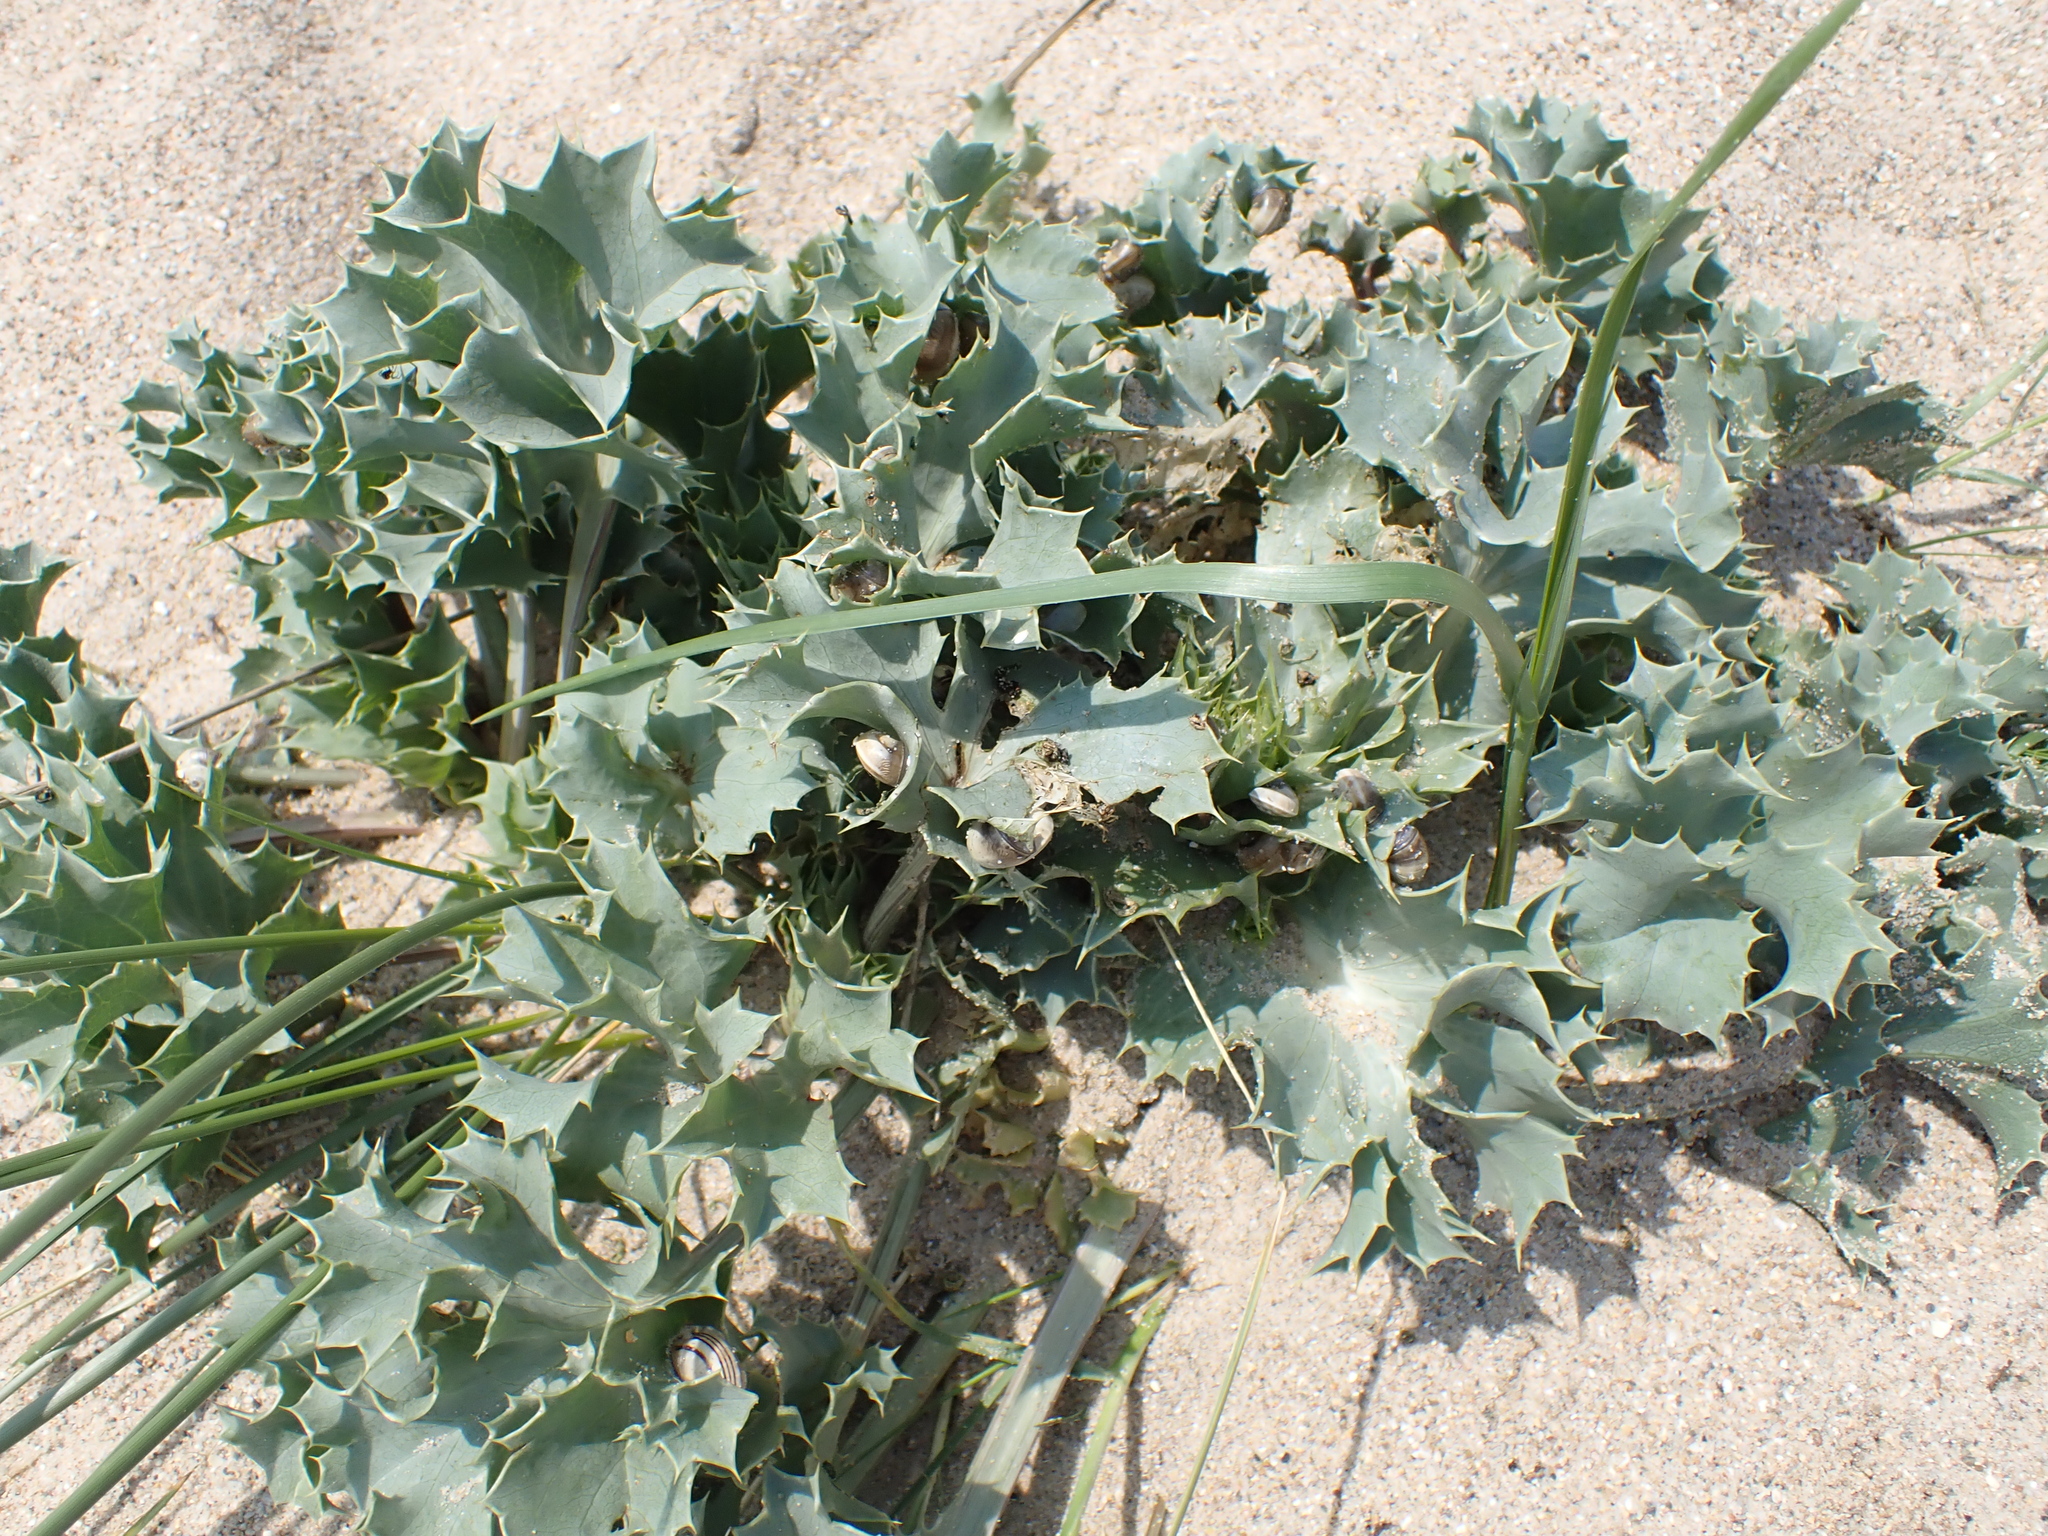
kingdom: Plantae
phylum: Tracheophyta
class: Magnoliopsida
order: Apiales
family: Apiaceae
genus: Eryngium
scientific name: Eryngium maritimum
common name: Sea-holly
